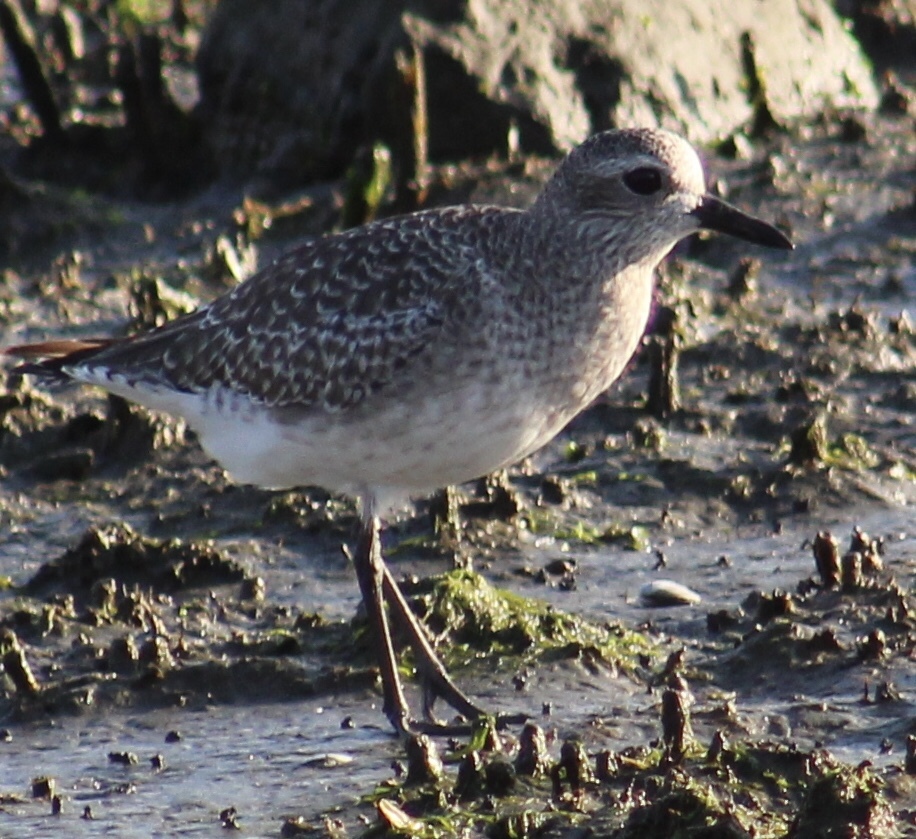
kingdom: Animalia
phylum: Chordata
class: Aves
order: Charadriiformes
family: Charadriidae
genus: Pluvialis
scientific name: Pluvialis squatarola
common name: Grey plover
